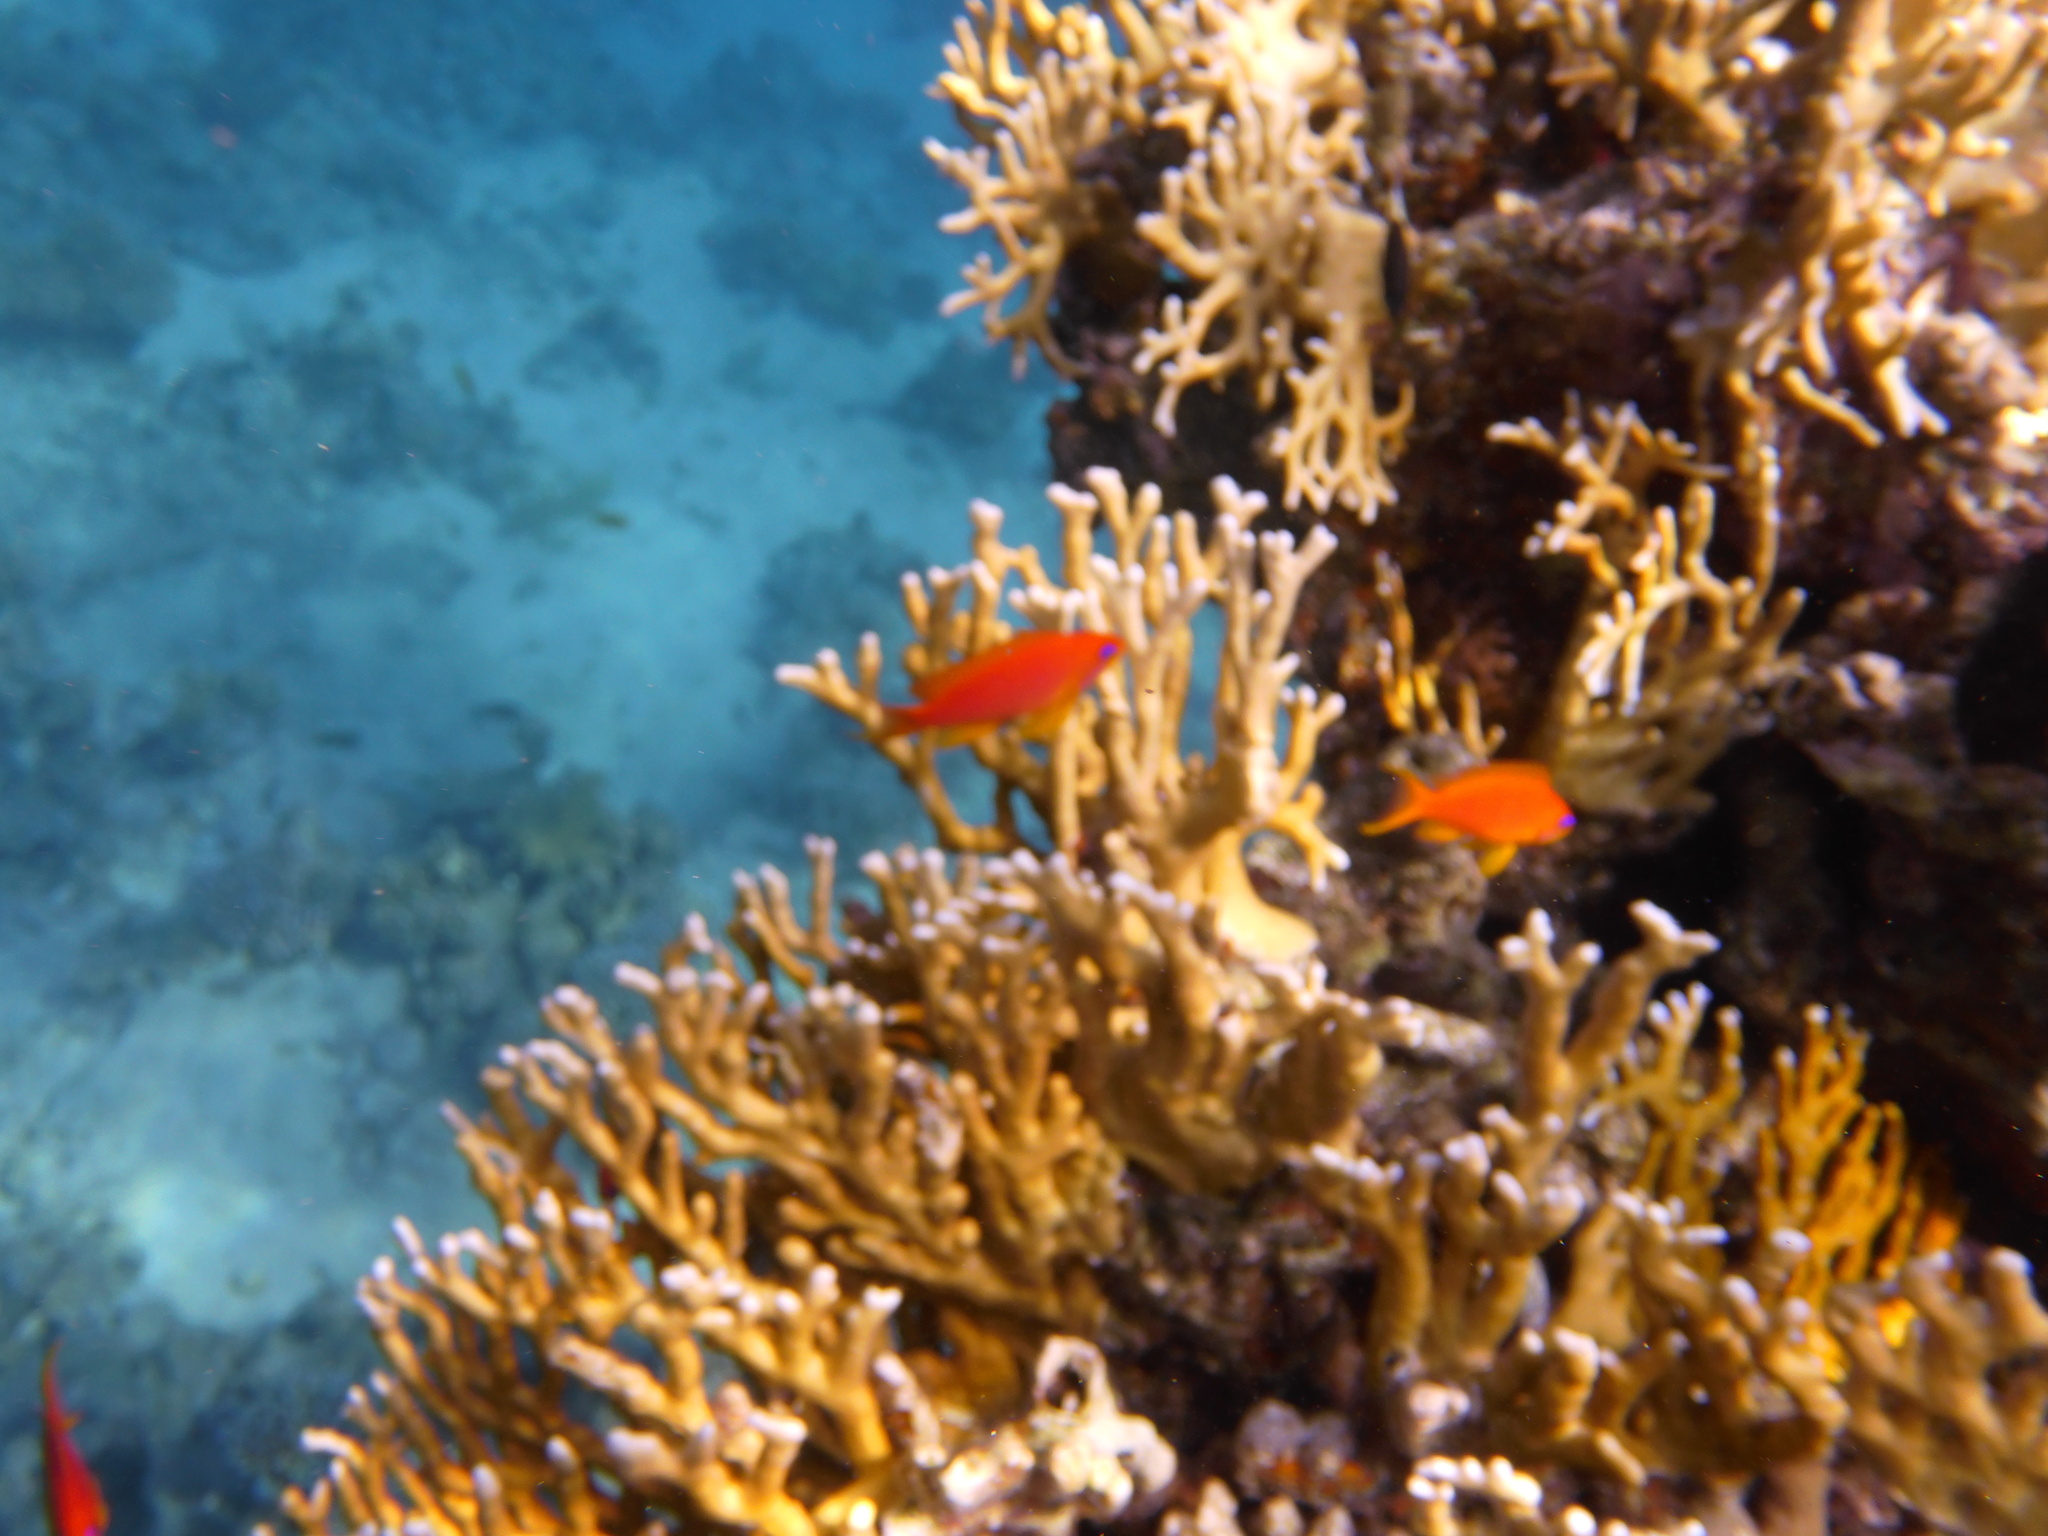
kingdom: Animalia
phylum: Chordata
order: Perciformes
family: Serranidae
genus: Pseudanthias
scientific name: Pseudanthias squamipinnis
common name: Scalefin anthias
